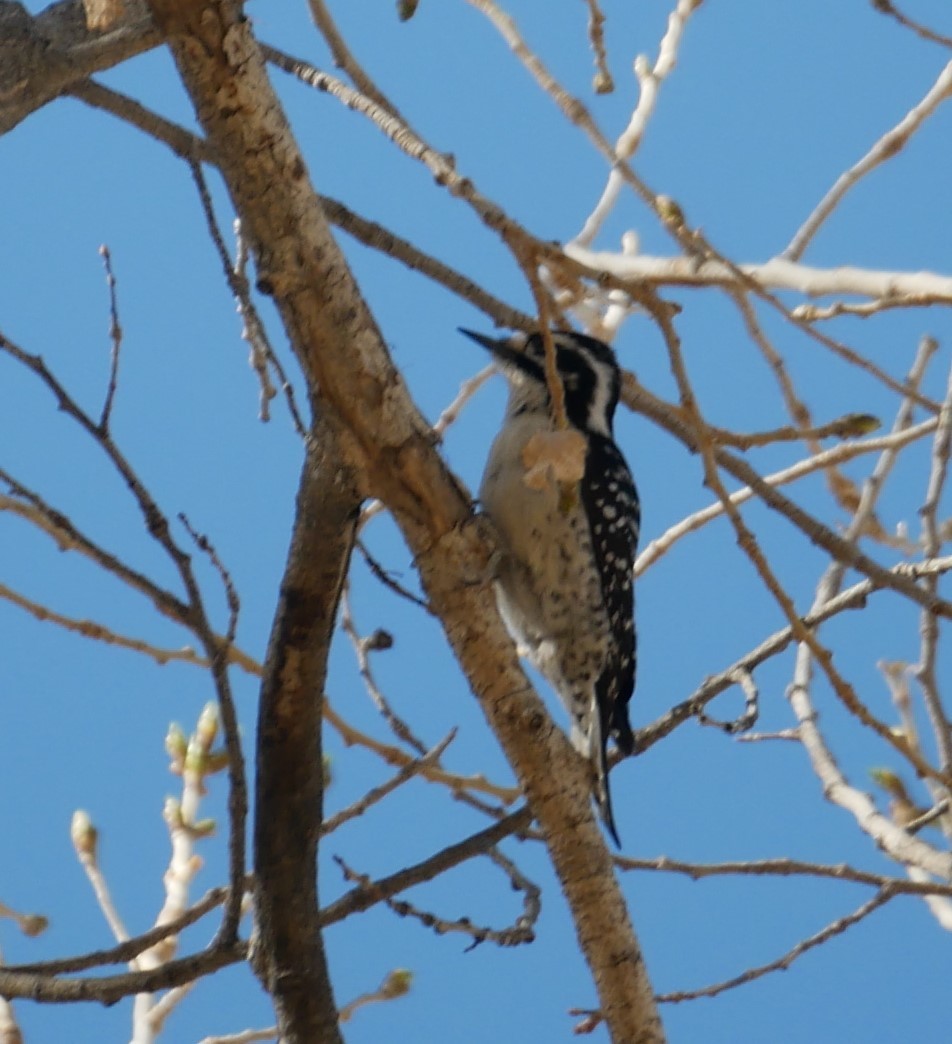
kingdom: Animalia
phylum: Chordata
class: Aves
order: Piciformes
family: Picidae
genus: Dryobates
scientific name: Dryobates nuttallii
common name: Nuttall's woodpecker
